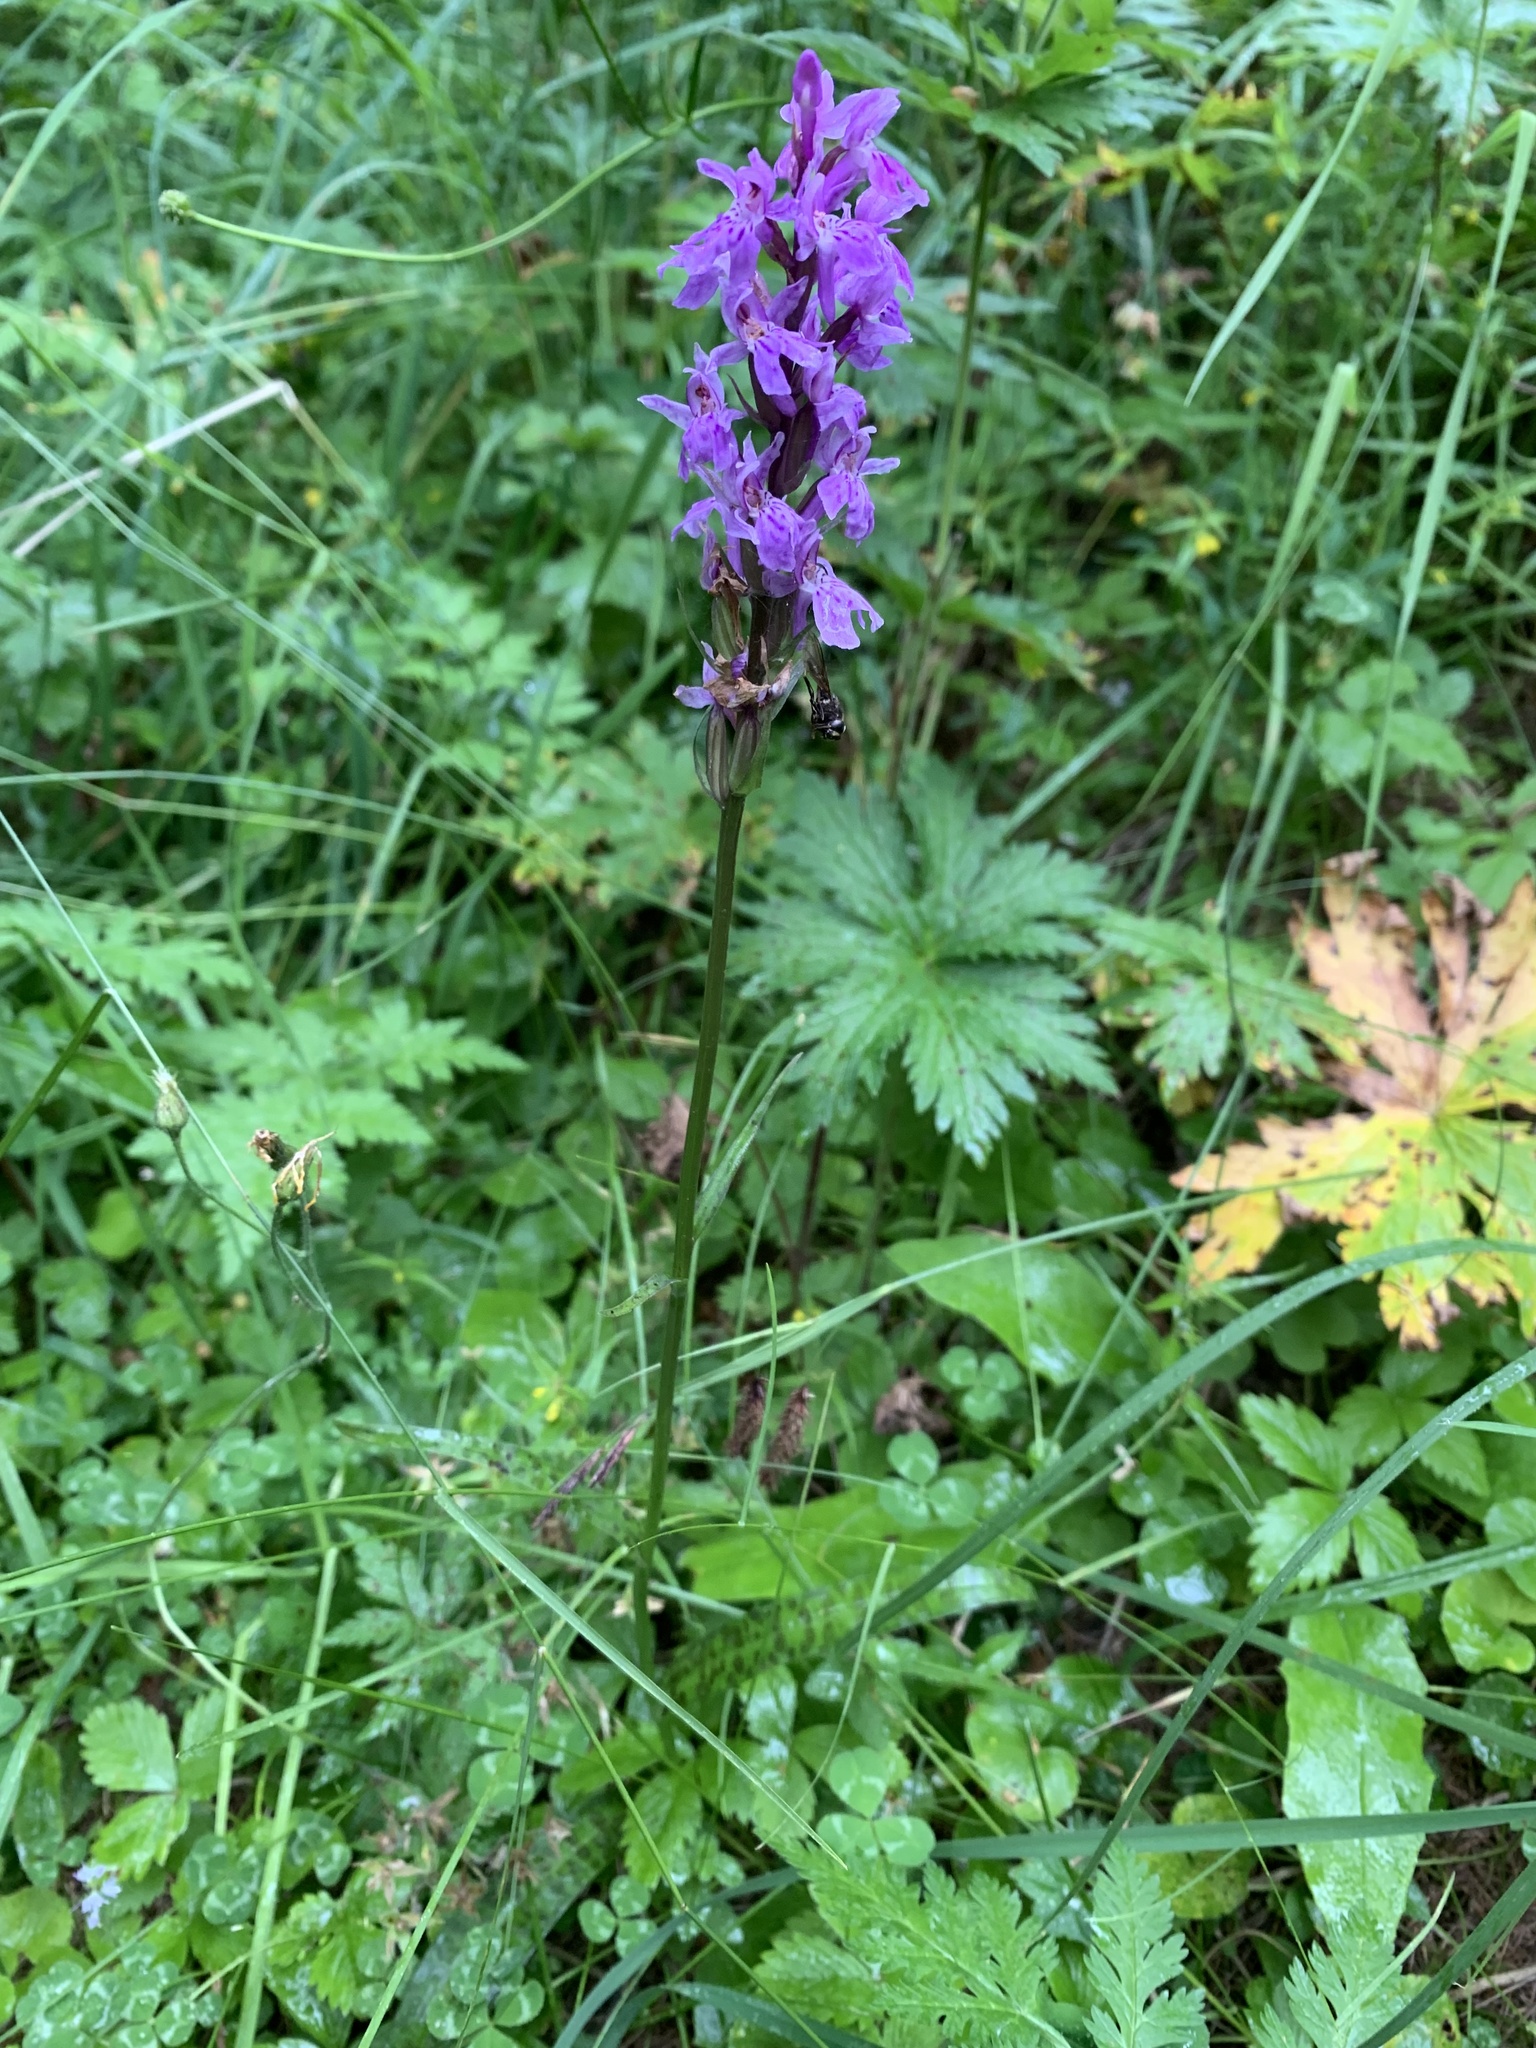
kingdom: Plantae
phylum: Tracheophyta
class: Liliopsida
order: Asparagales
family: Orchidaceae
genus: Dactylorhiza
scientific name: Dactylorhiza maculata
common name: Heath spotted-orchid
